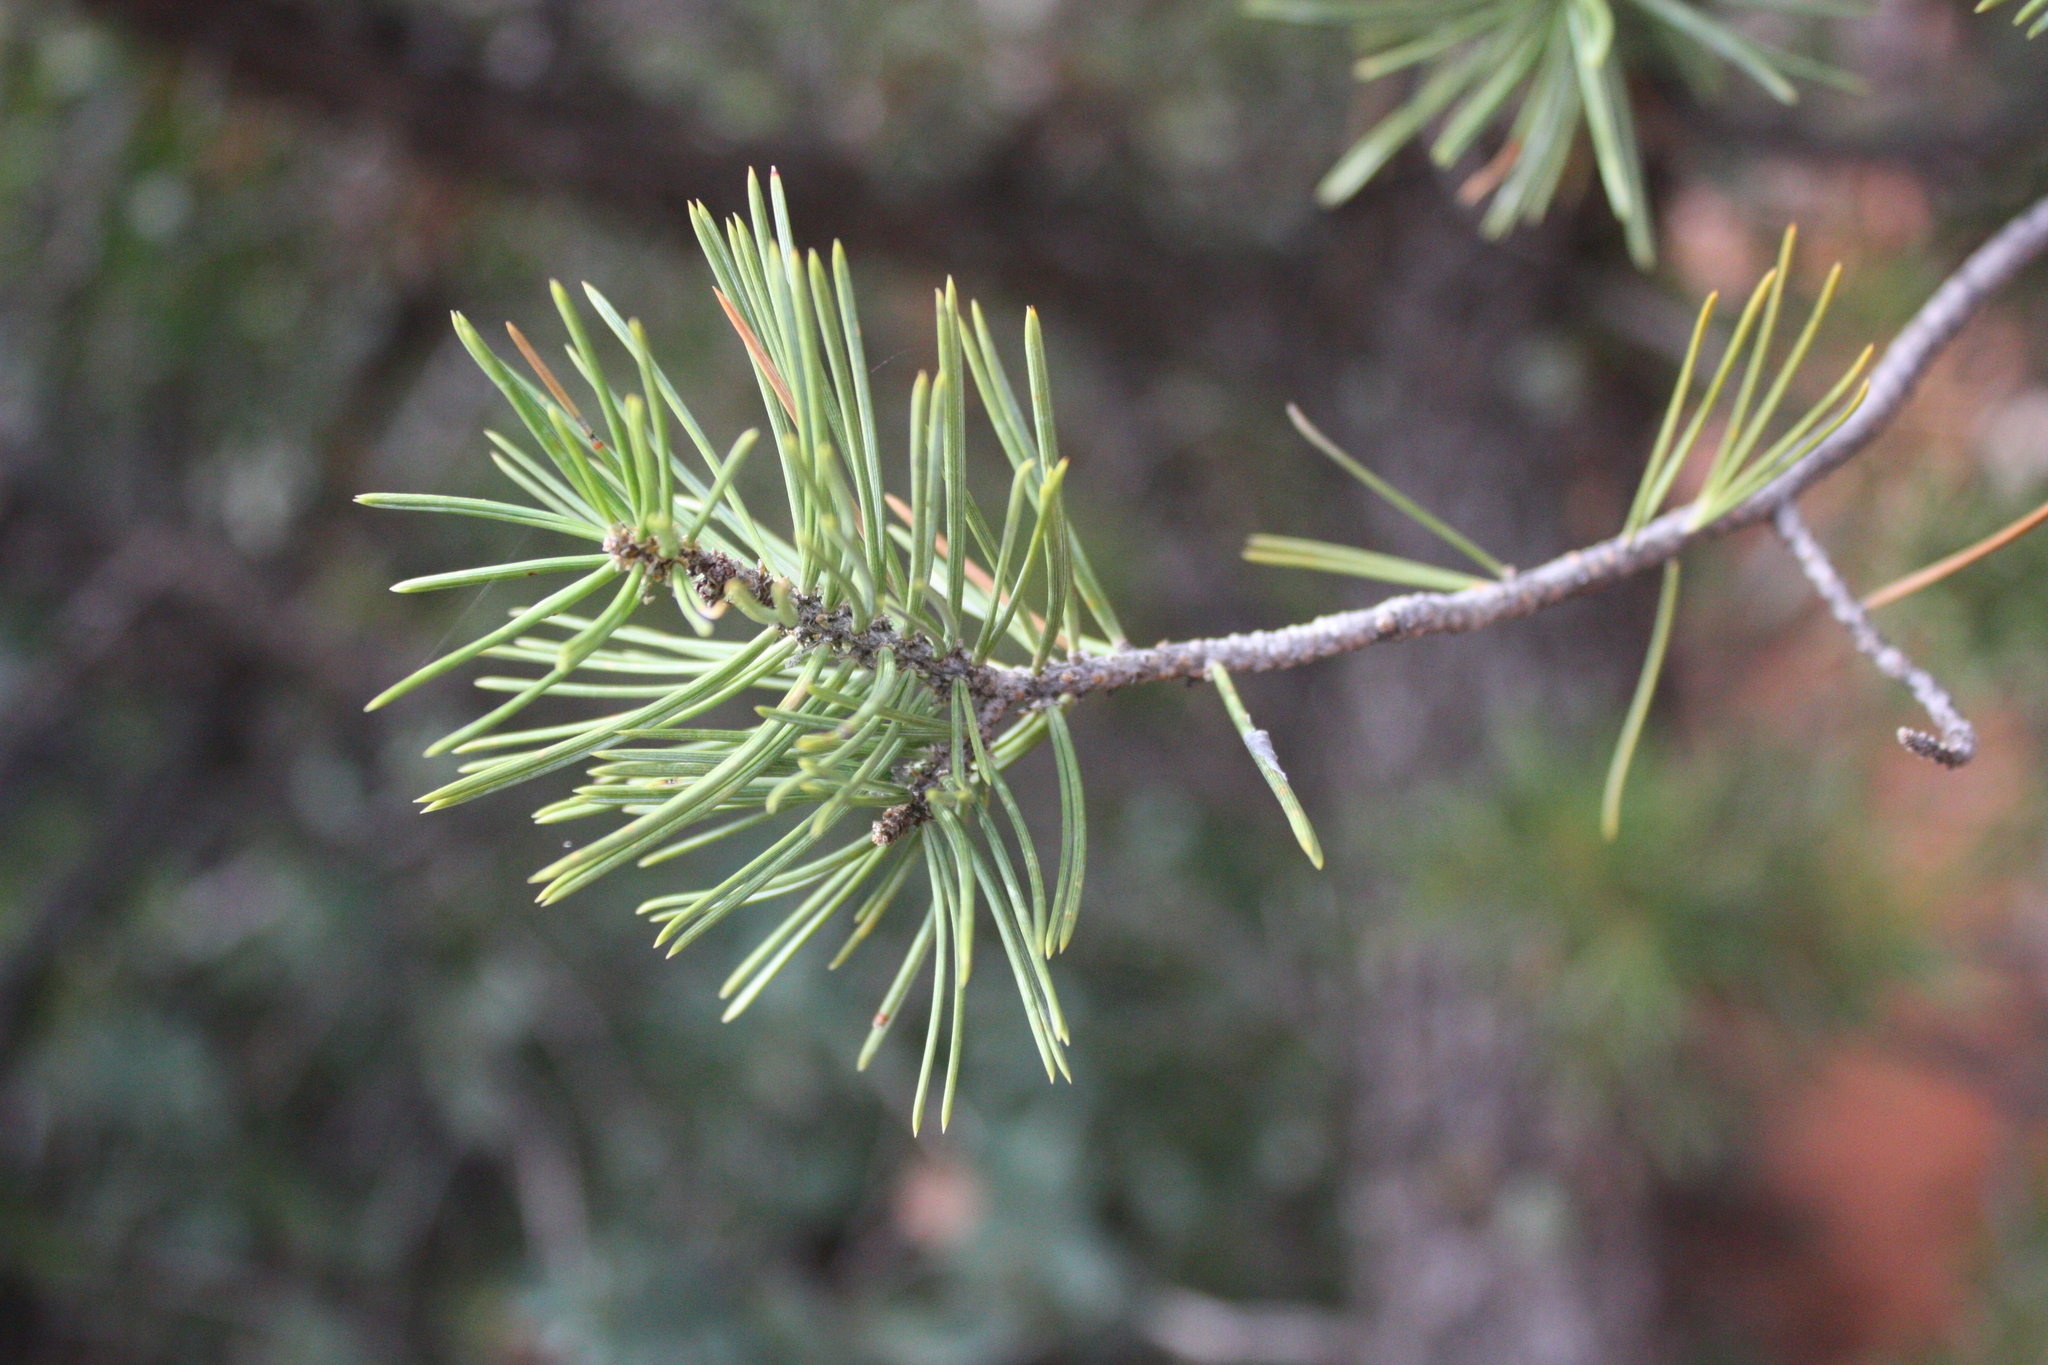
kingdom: Plantae
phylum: Tracheophyta
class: Pinopsida
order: Pinales
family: Pinaceae
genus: Pinus
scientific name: Pinus edulis
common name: Colorado pinyon
